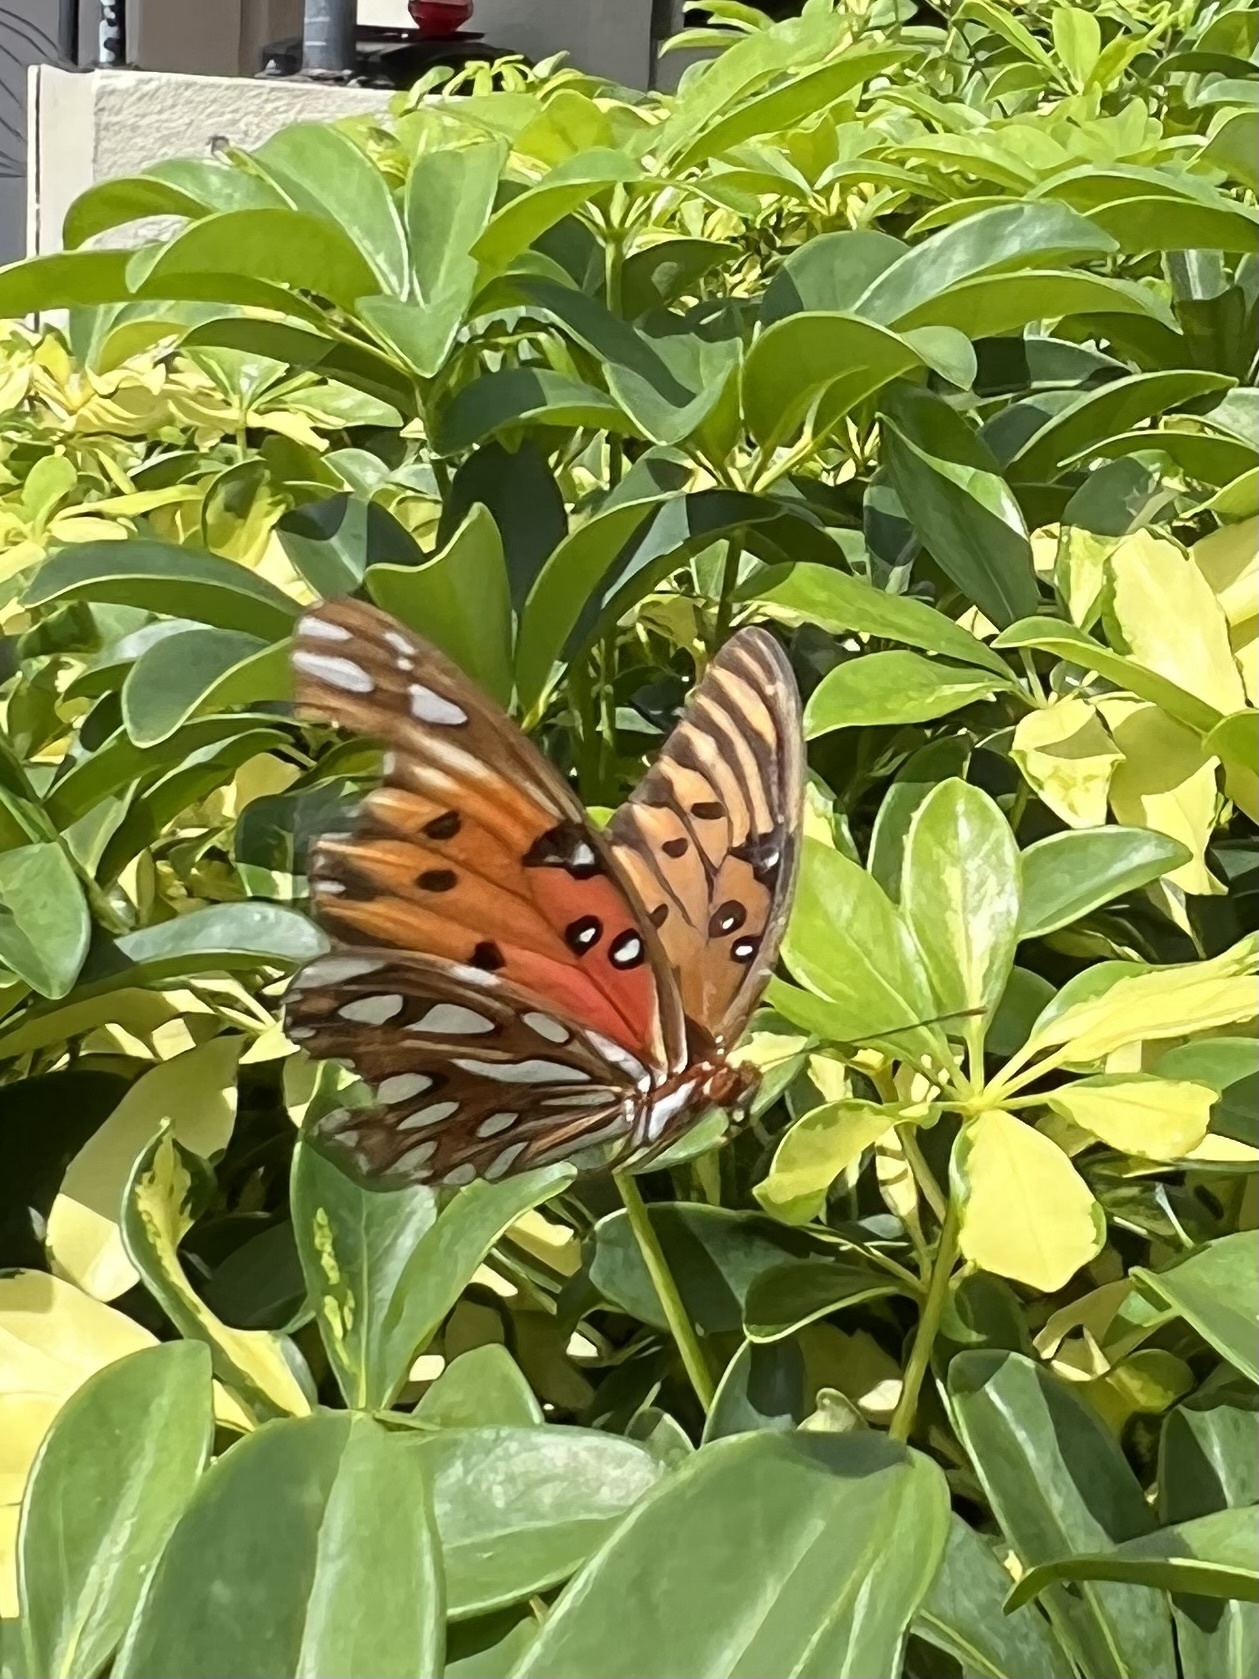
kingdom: Animalia
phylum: Arthropoda
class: Insecta
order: Lepidoptera
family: Nymphalidae
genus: Dione
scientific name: Dione vanillae
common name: Gulf fritillary
